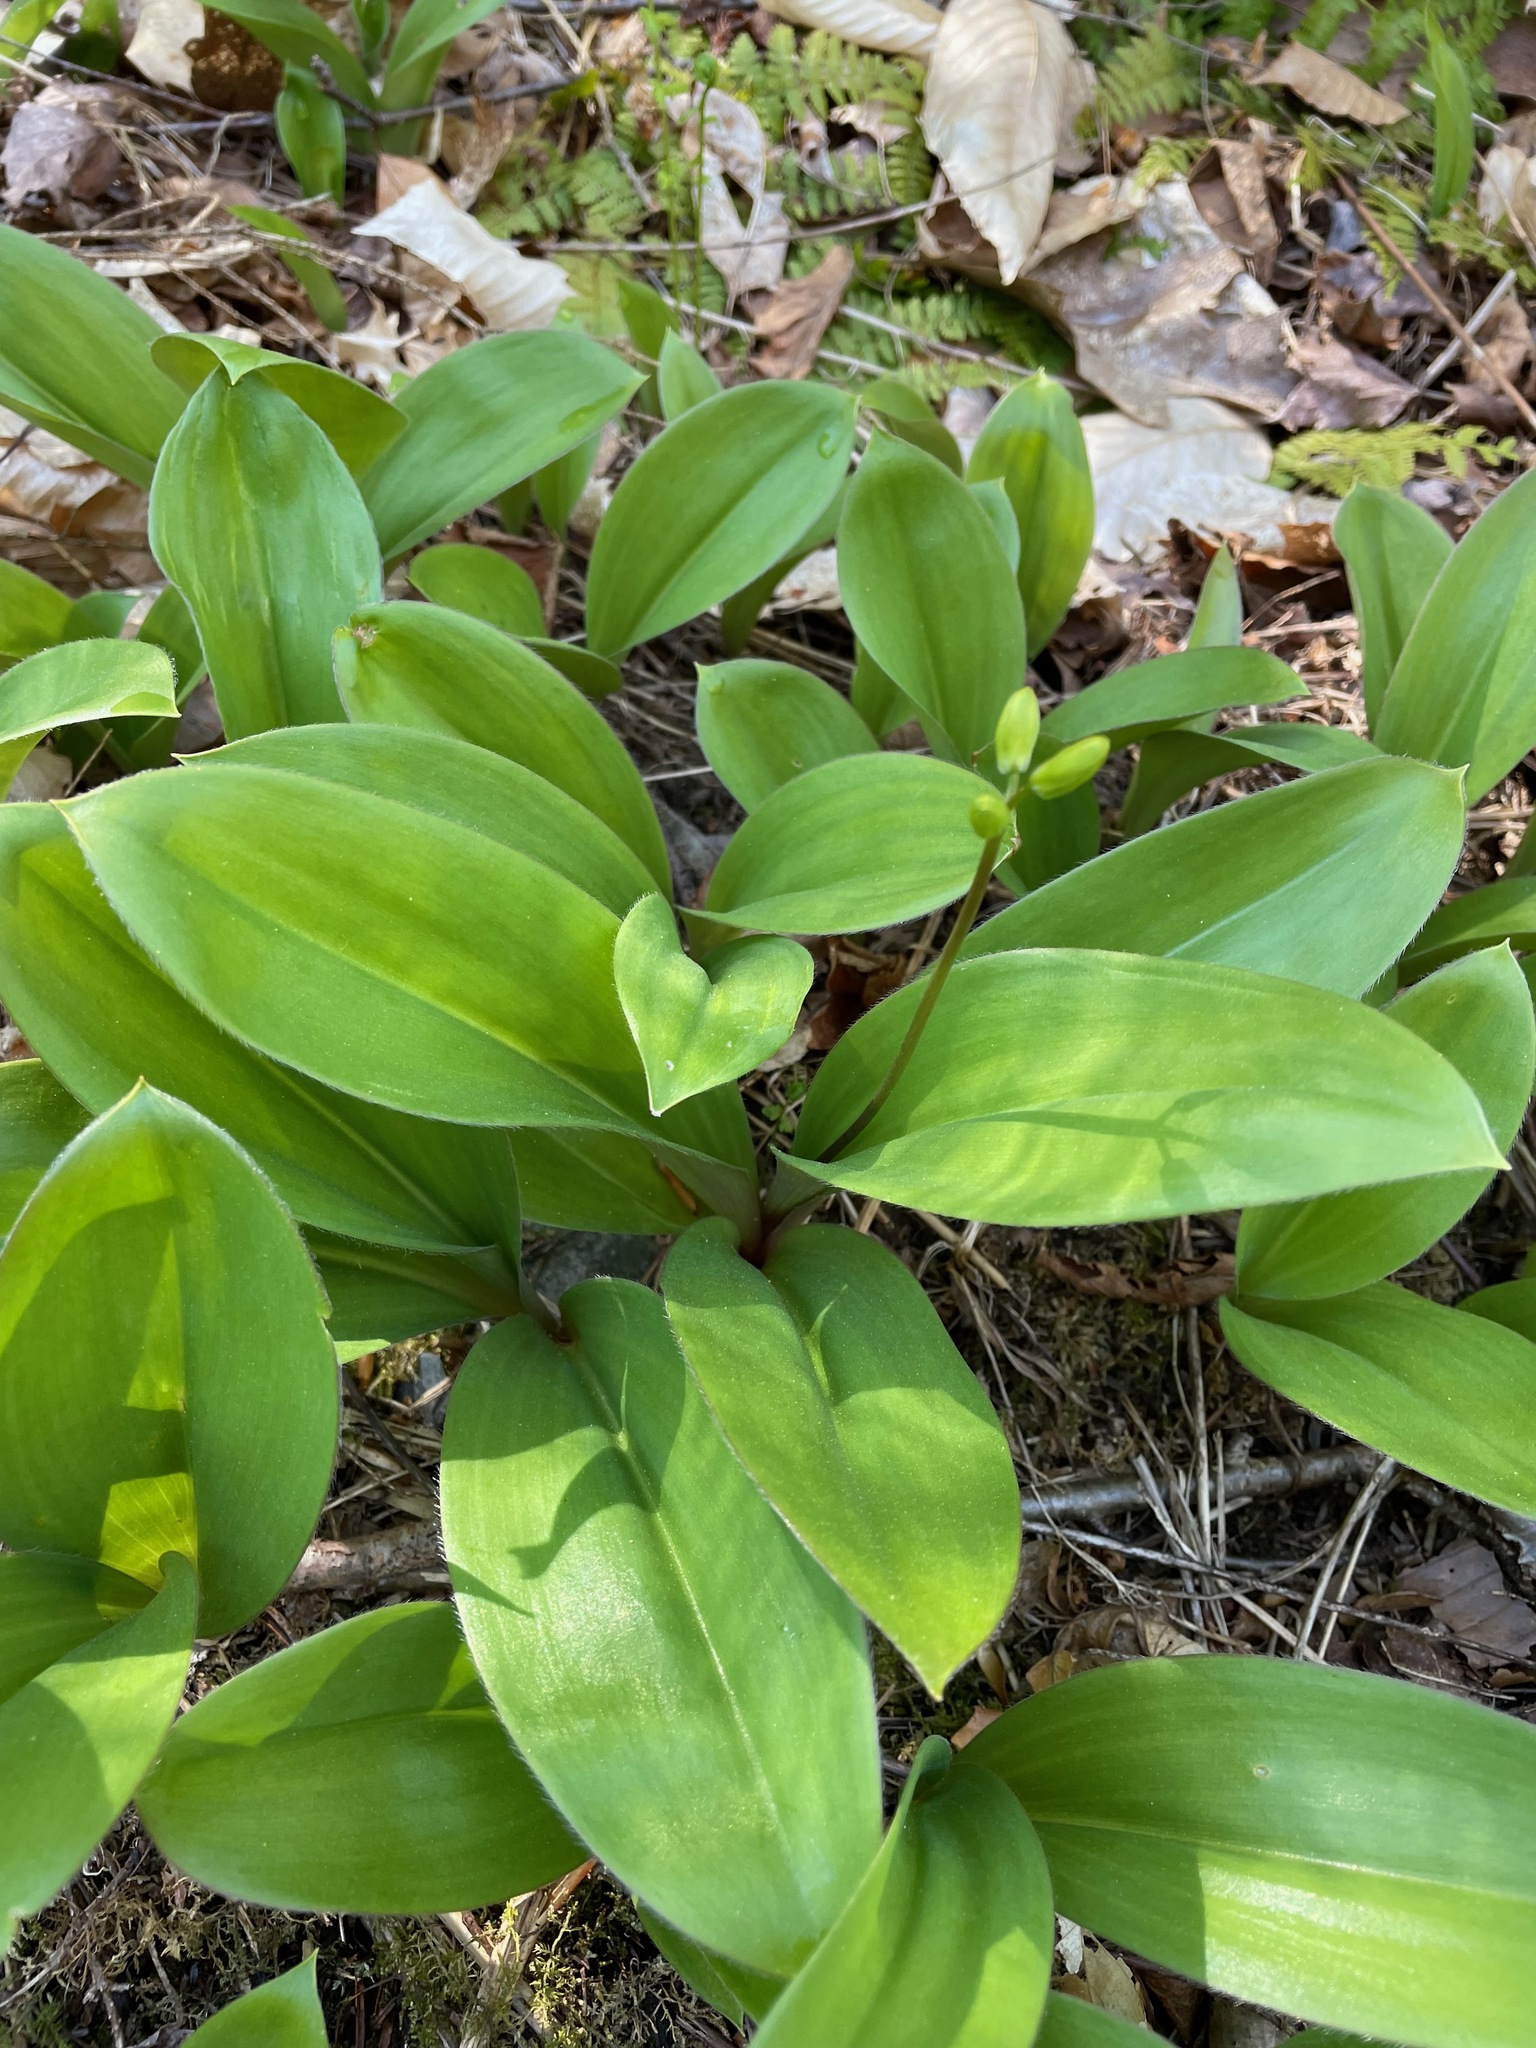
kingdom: Plantae
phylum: Tracheophyta
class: Liliopsida
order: Liliales
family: Liliaceae
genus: Clintonia
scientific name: Clintonia borealis
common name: Yellow clintonia
